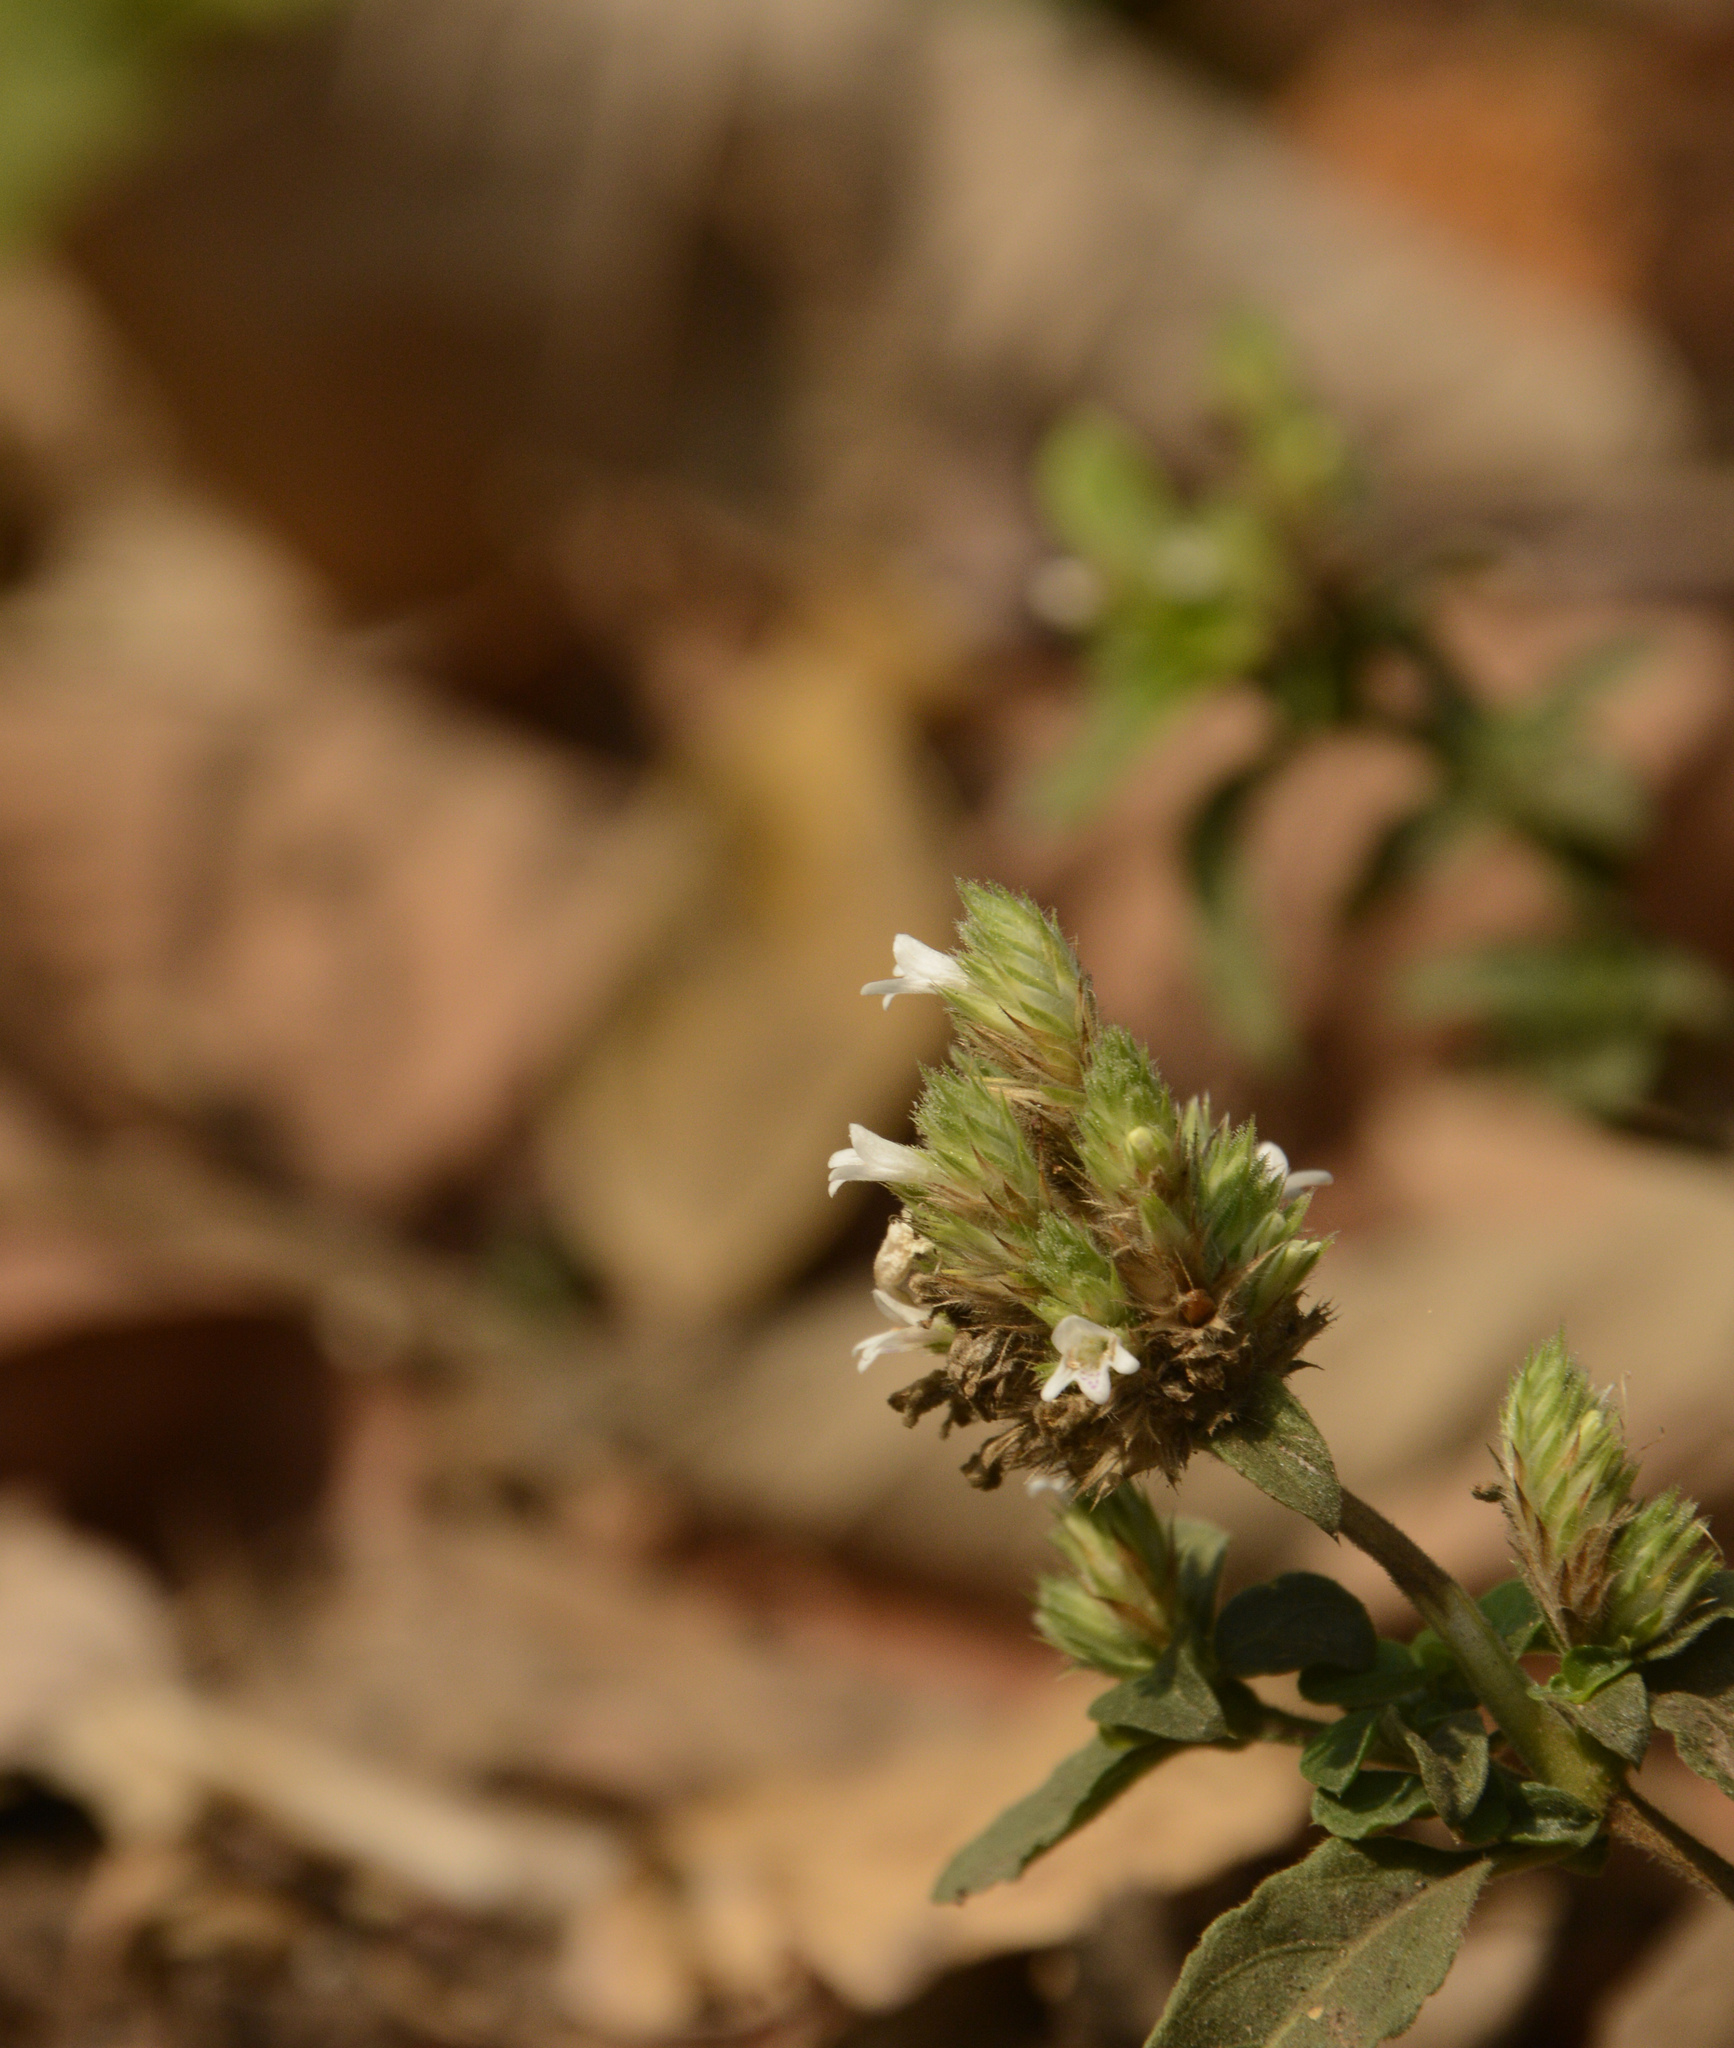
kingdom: Plantae
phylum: Tracheophyta
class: Magnoliopsida
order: Lamiales
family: Acanthaceae
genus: Lepidagathis
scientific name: Lepidagathis incurva
